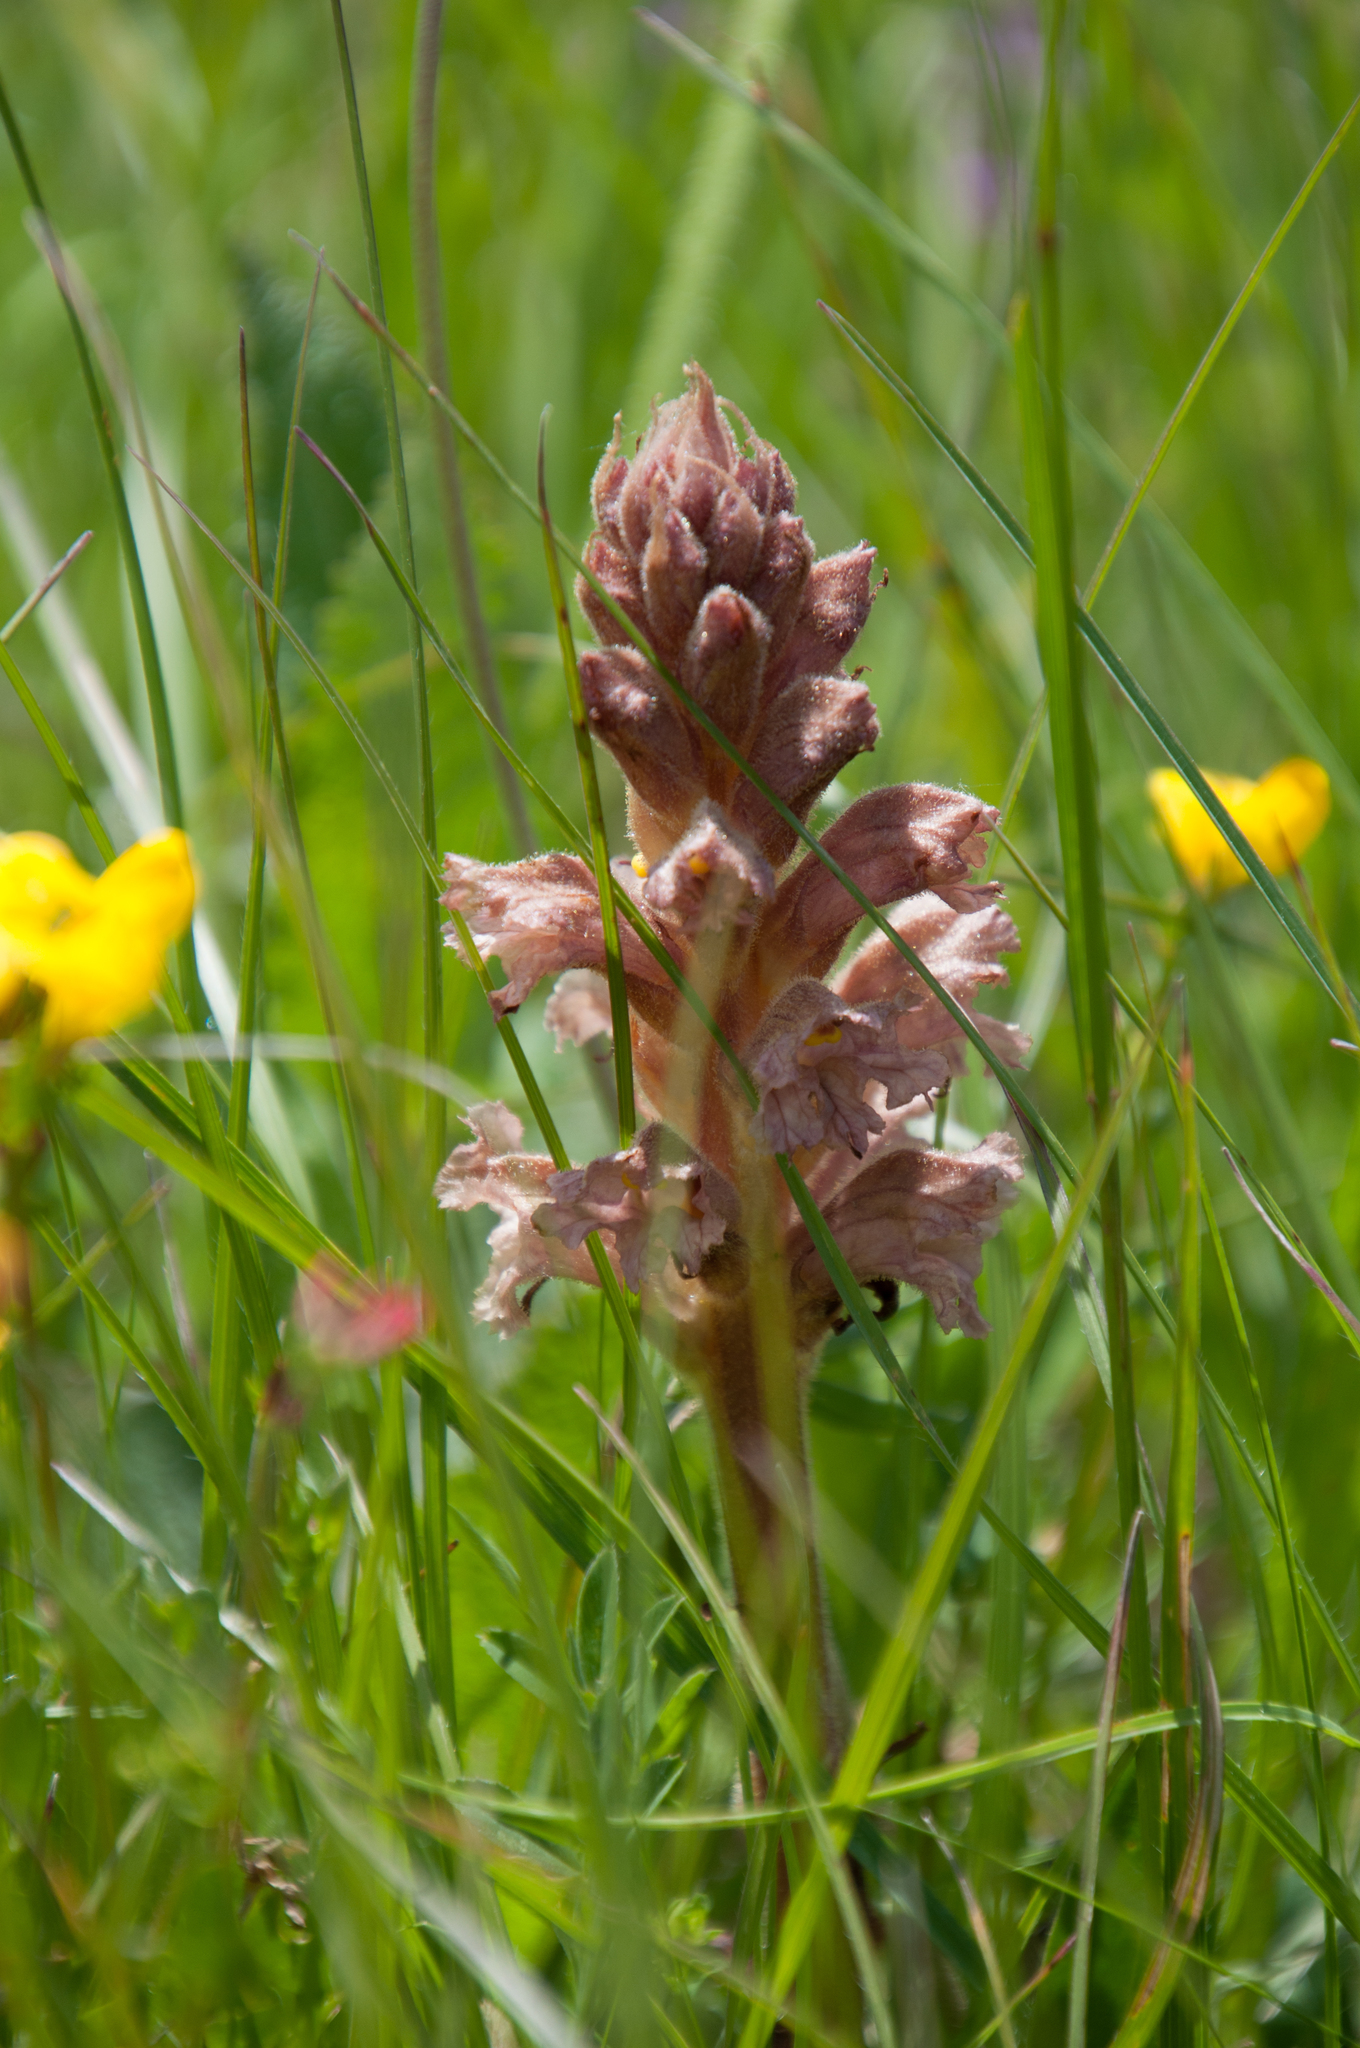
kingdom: Plantae
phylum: Tracheophyta
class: Magnoliopsida
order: Lamiales
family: Orobanchaceae
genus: Orobanche
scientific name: Orobanche lutea
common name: Yellow broomrape
